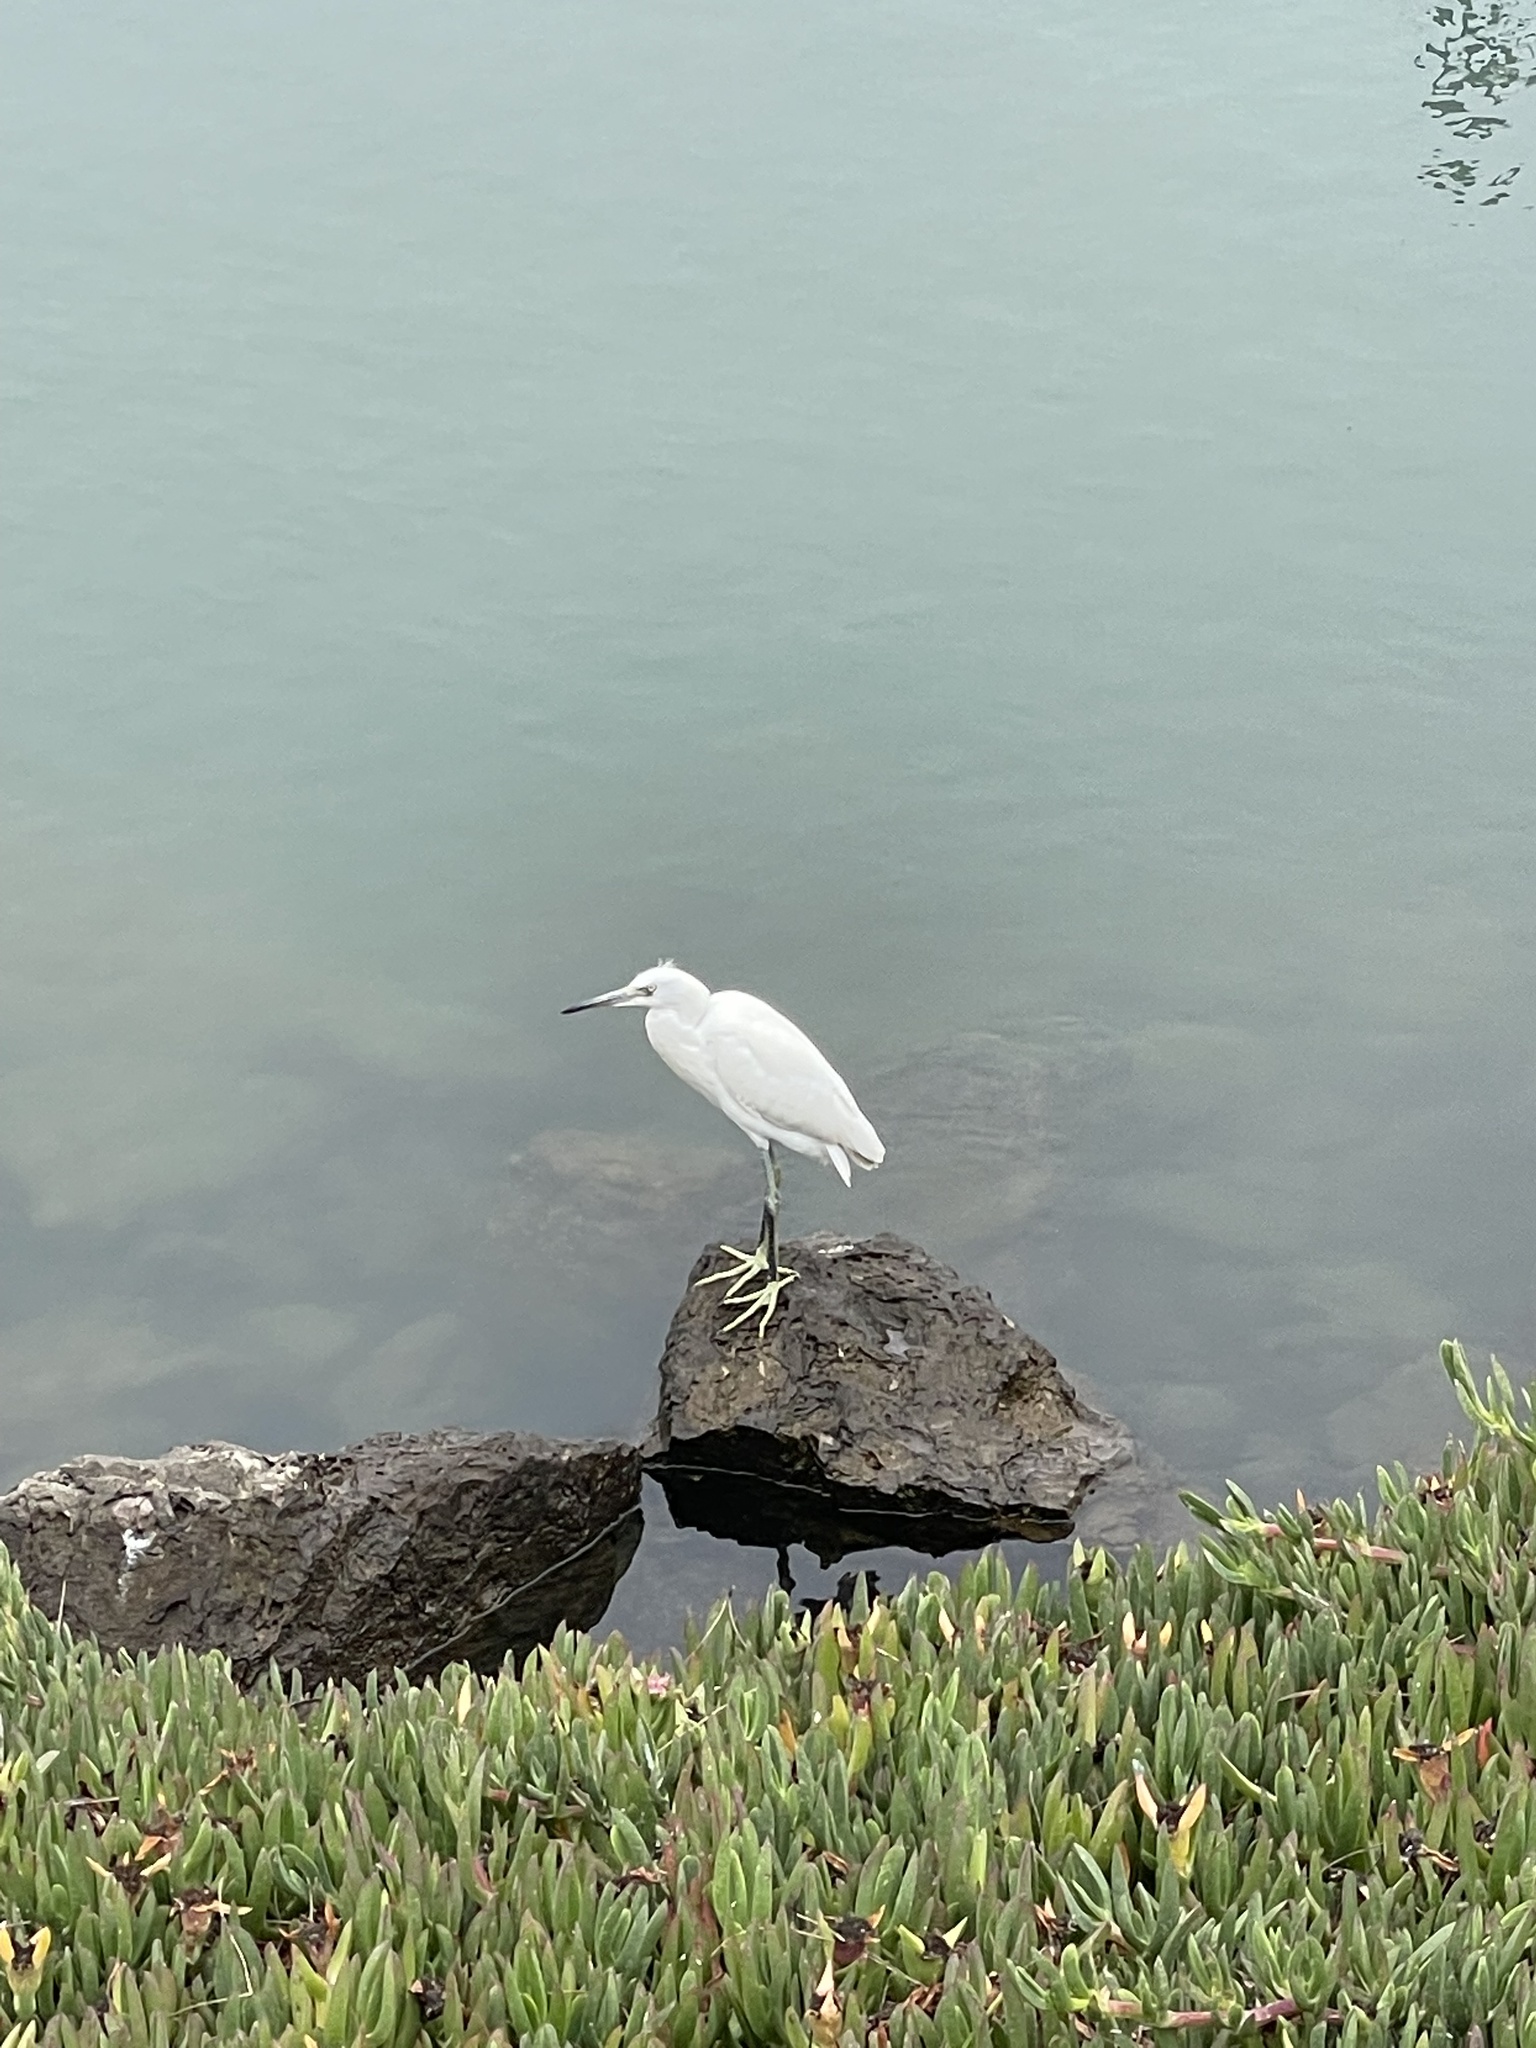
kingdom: Animalia
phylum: Chordata
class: Aves
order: Pelecaniformes
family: Ardeidae
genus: Egretta
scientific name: Egretta thula
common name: Snowy egret
